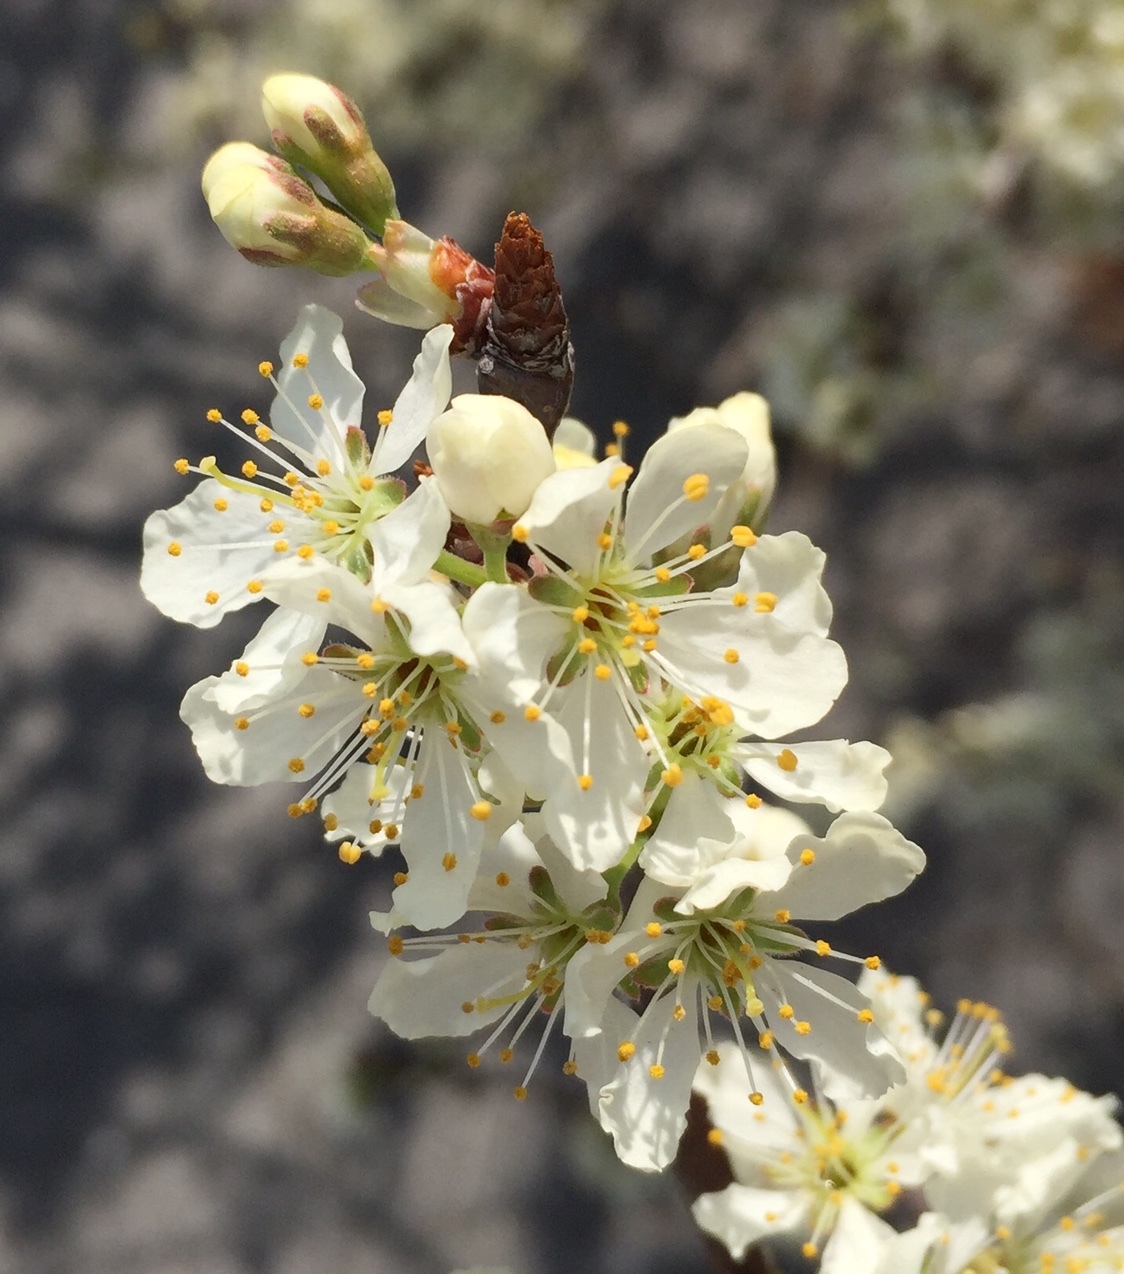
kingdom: Plantae
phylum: Tracheophyta
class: Magnoliopsida
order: Rosales
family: Rosaceae
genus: Prunus
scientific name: Prunus maritima
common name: Beach plum
